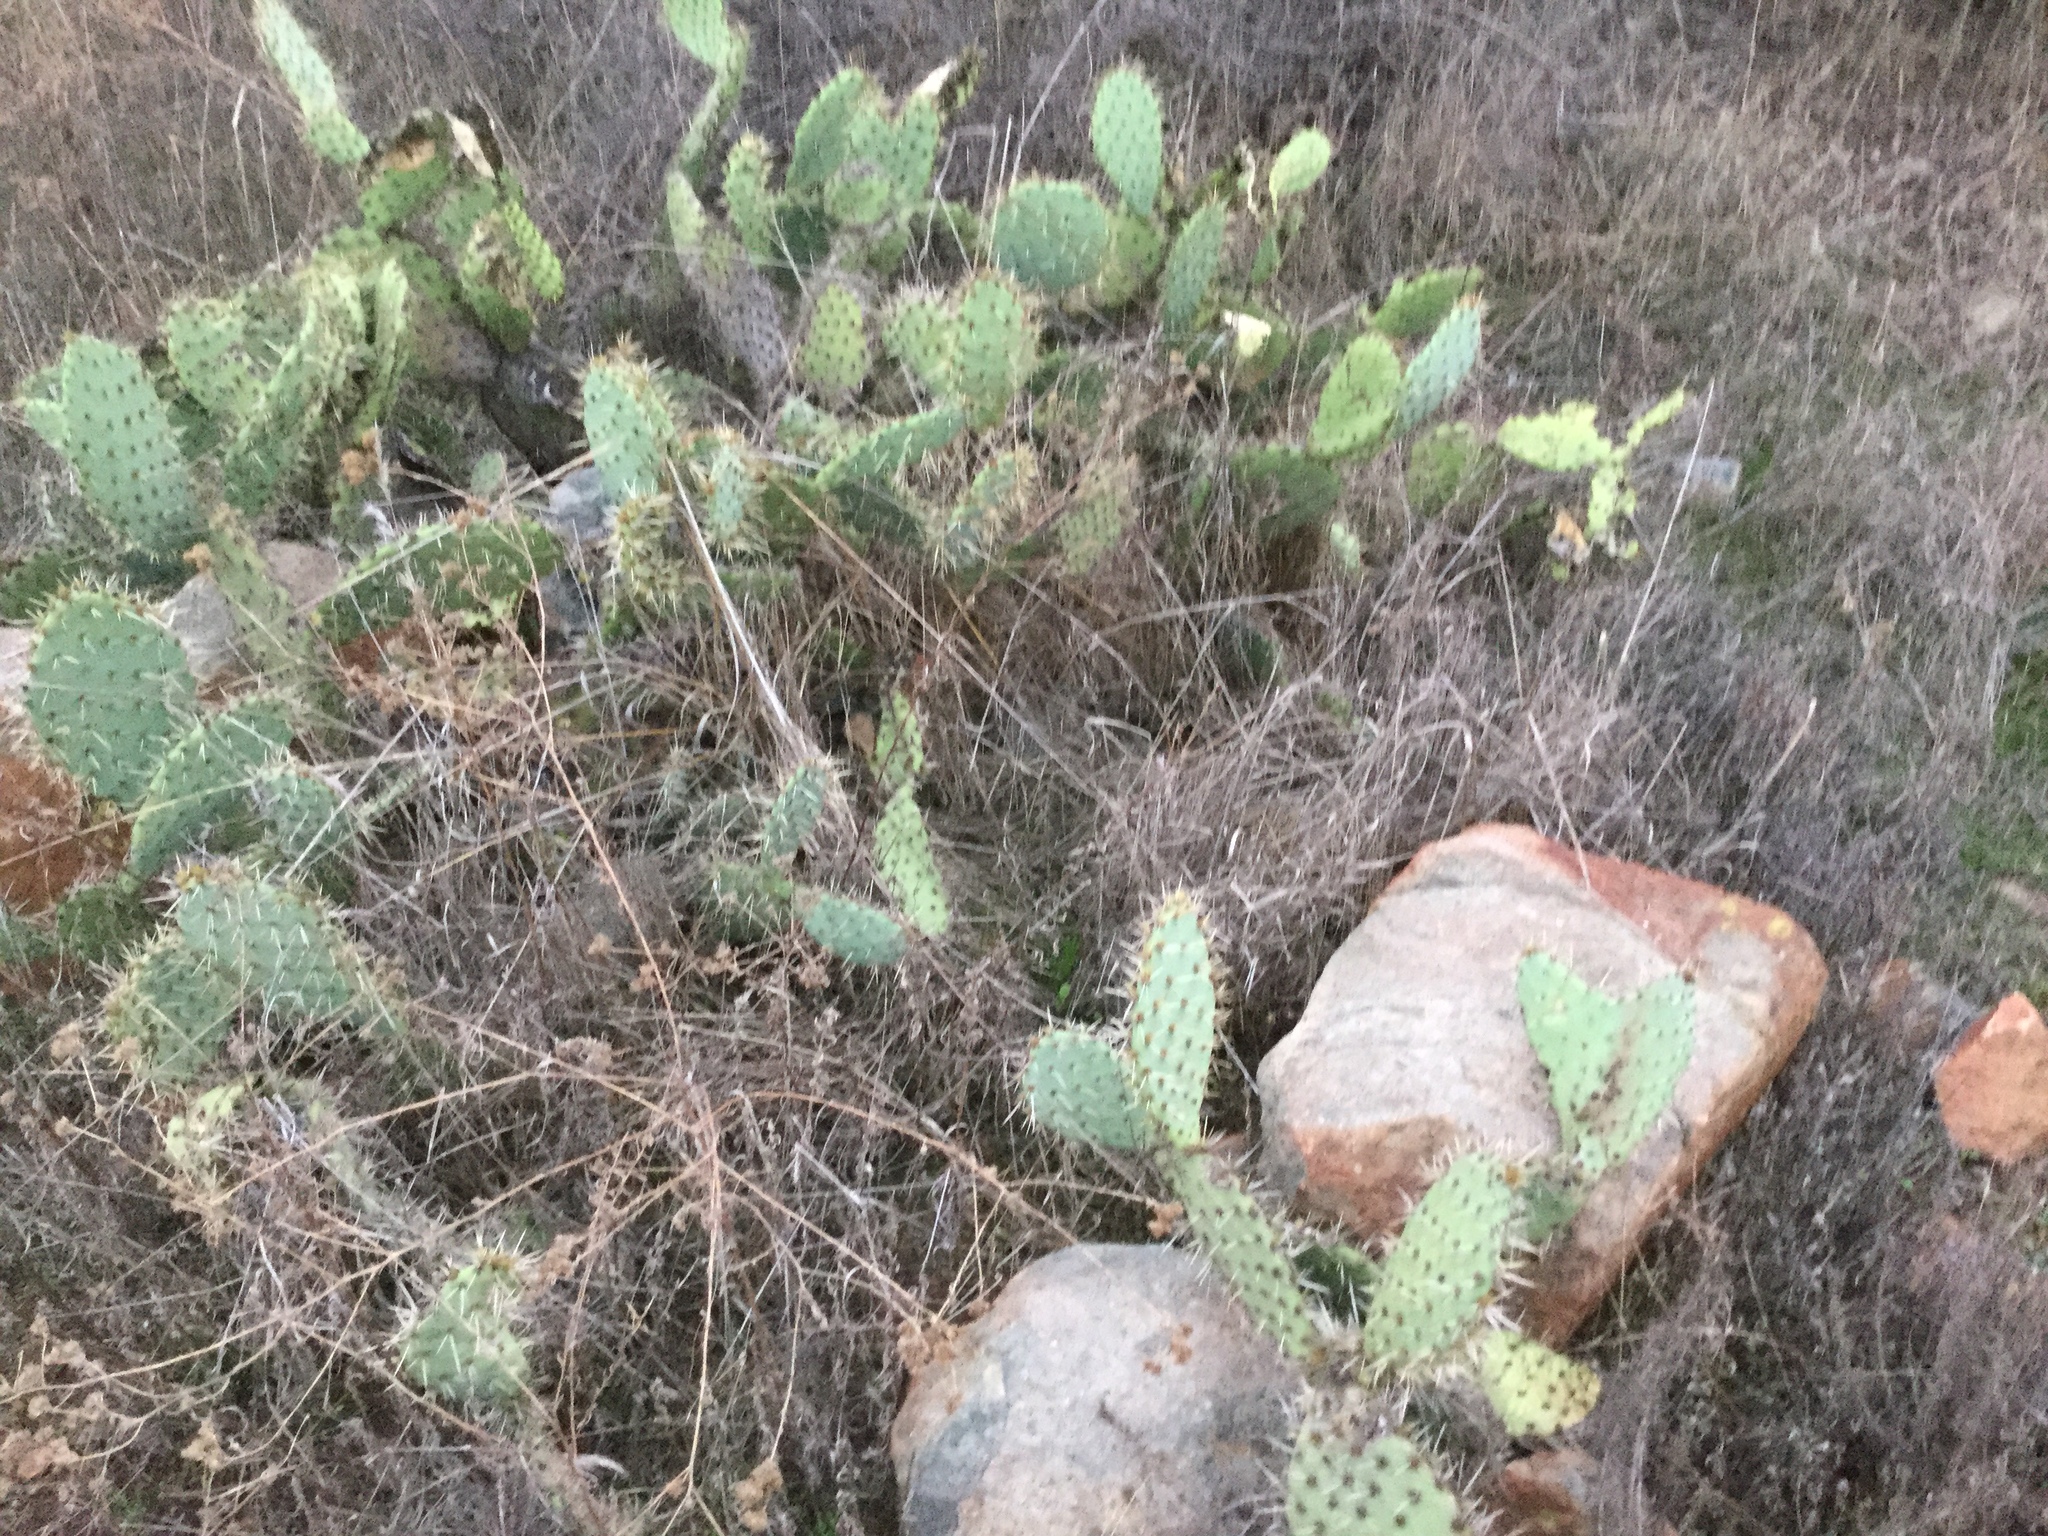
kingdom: Plantae
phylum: Tracheophyta
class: Magnoliopsida
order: Caryophyllales
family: Cactaceae
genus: Opuntia
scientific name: Opuntia littoralis
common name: Coastal prickly-pear
